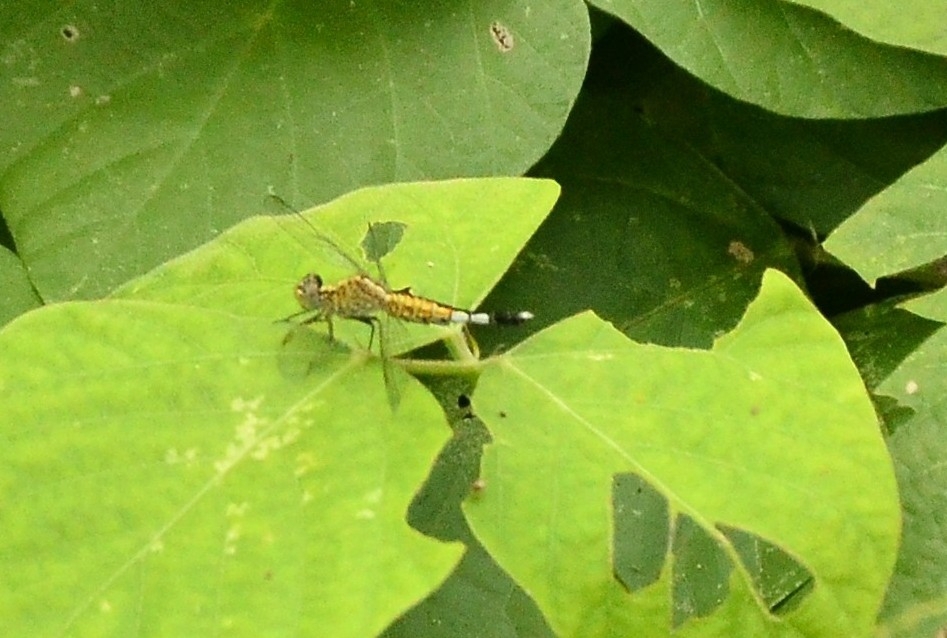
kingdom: Animalia
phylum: Arthropoda
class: Insecta
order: Odonata
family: Libellulidae
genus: Acisoma
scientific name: Acisoma panorpoides
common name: Asian pintail
